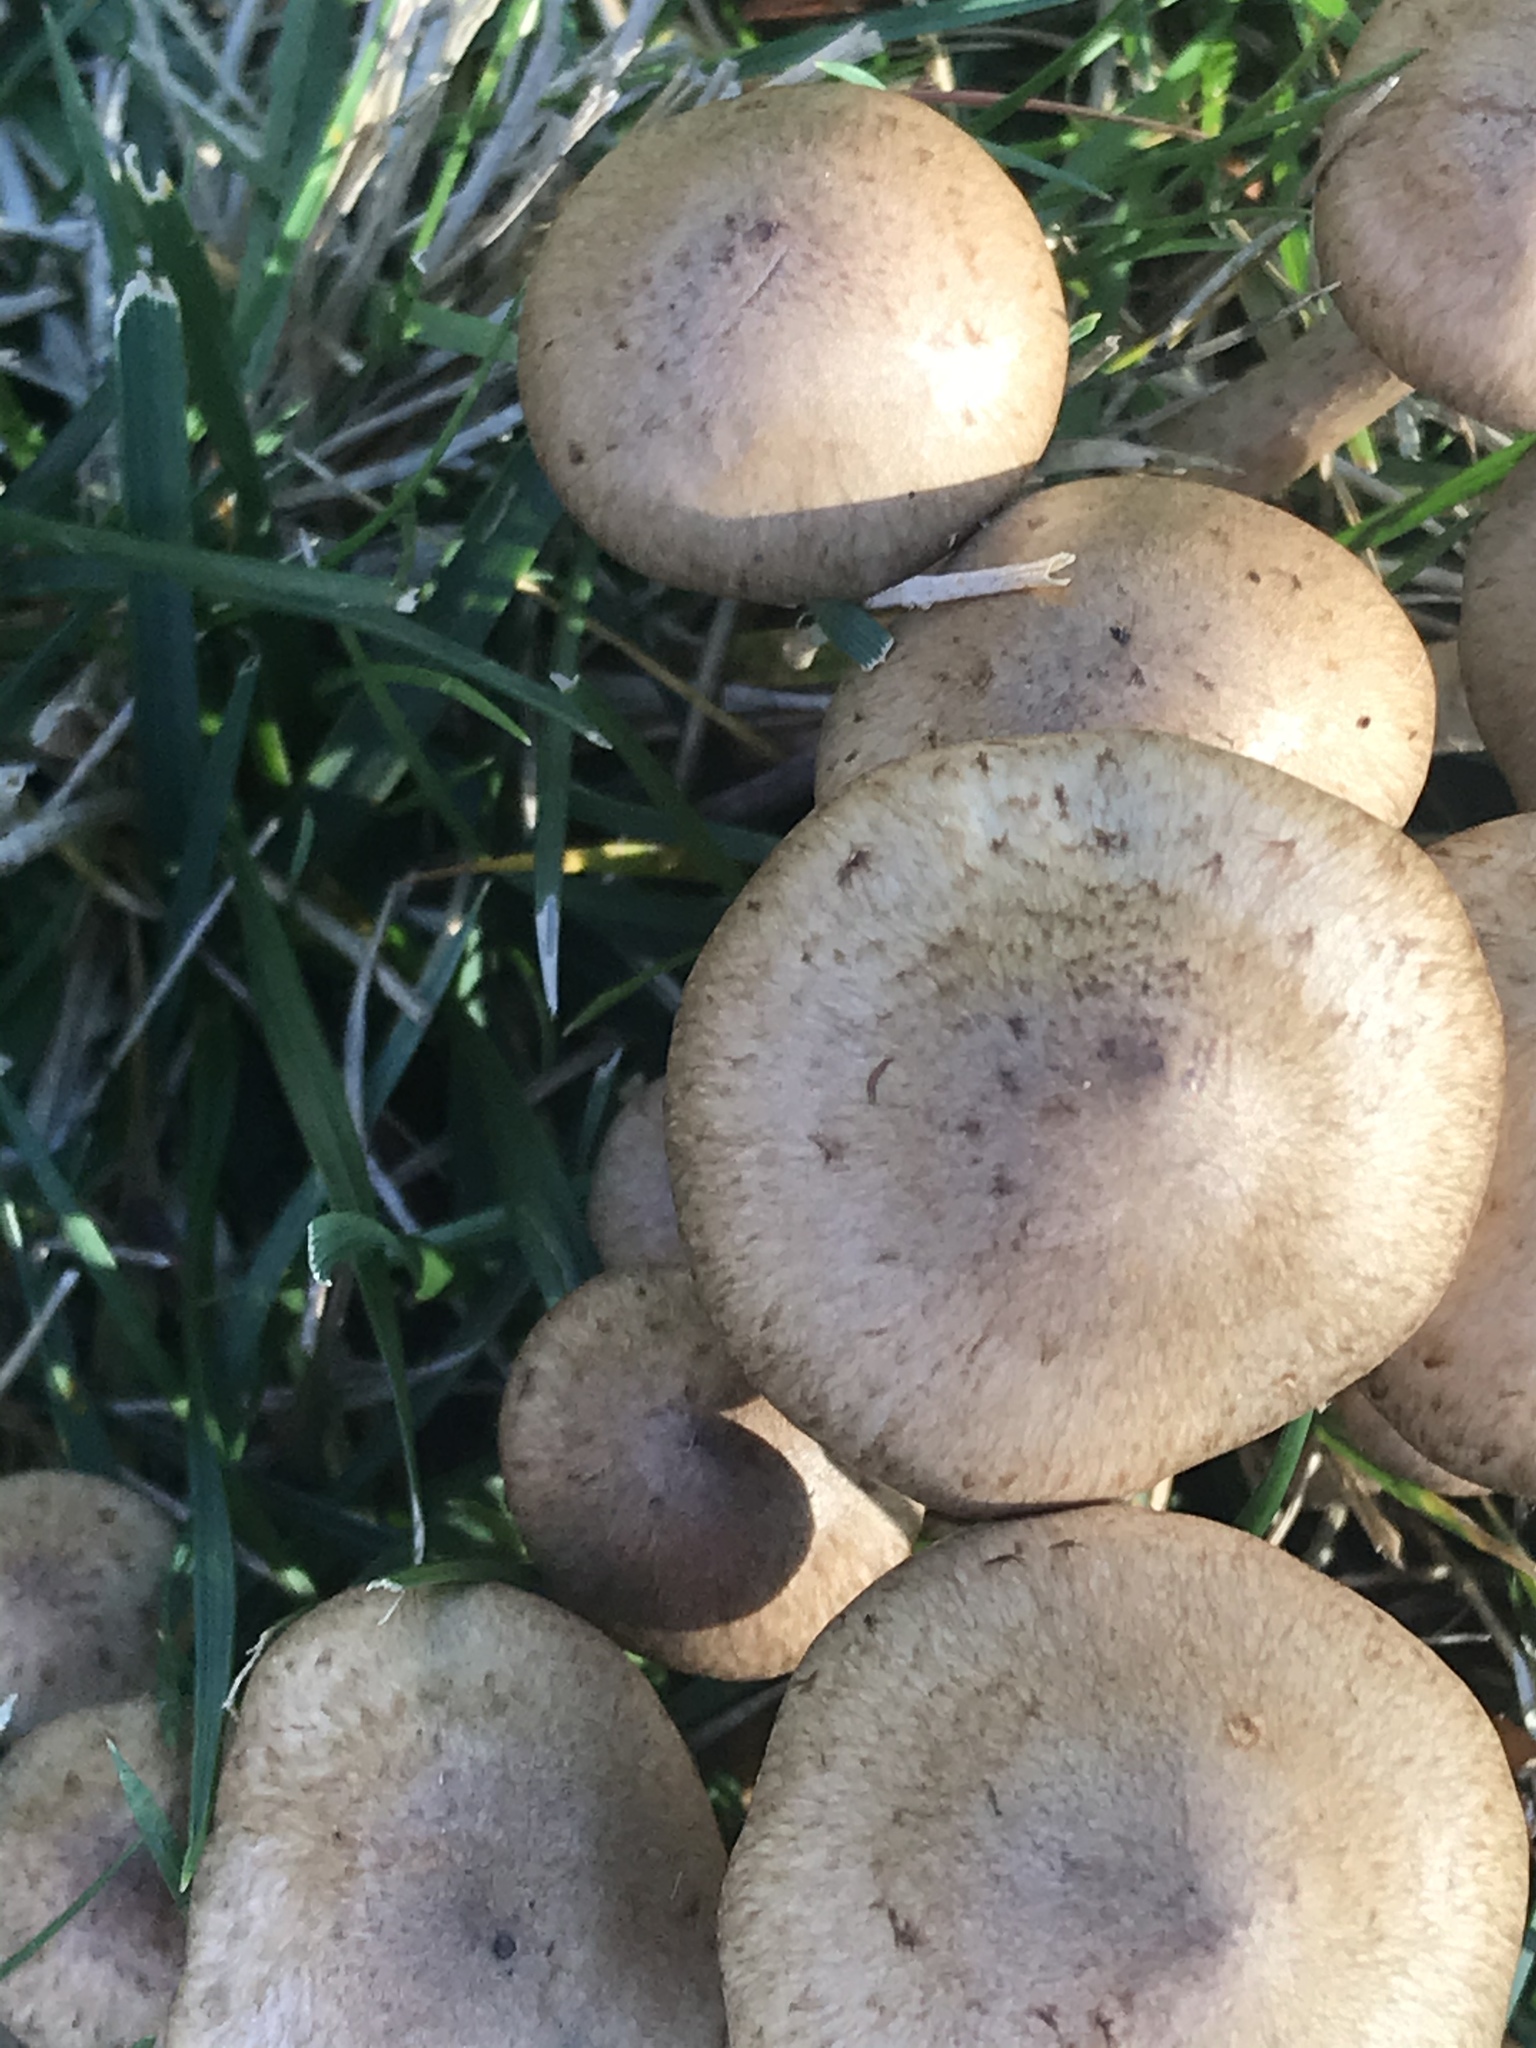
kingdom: Fungi
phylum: Basidiomycota
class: Agaricomycetes
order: Agaricales
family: Physalacriaceae
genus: Armillaria
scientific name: Armillaria mellea
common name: Honey fungus
